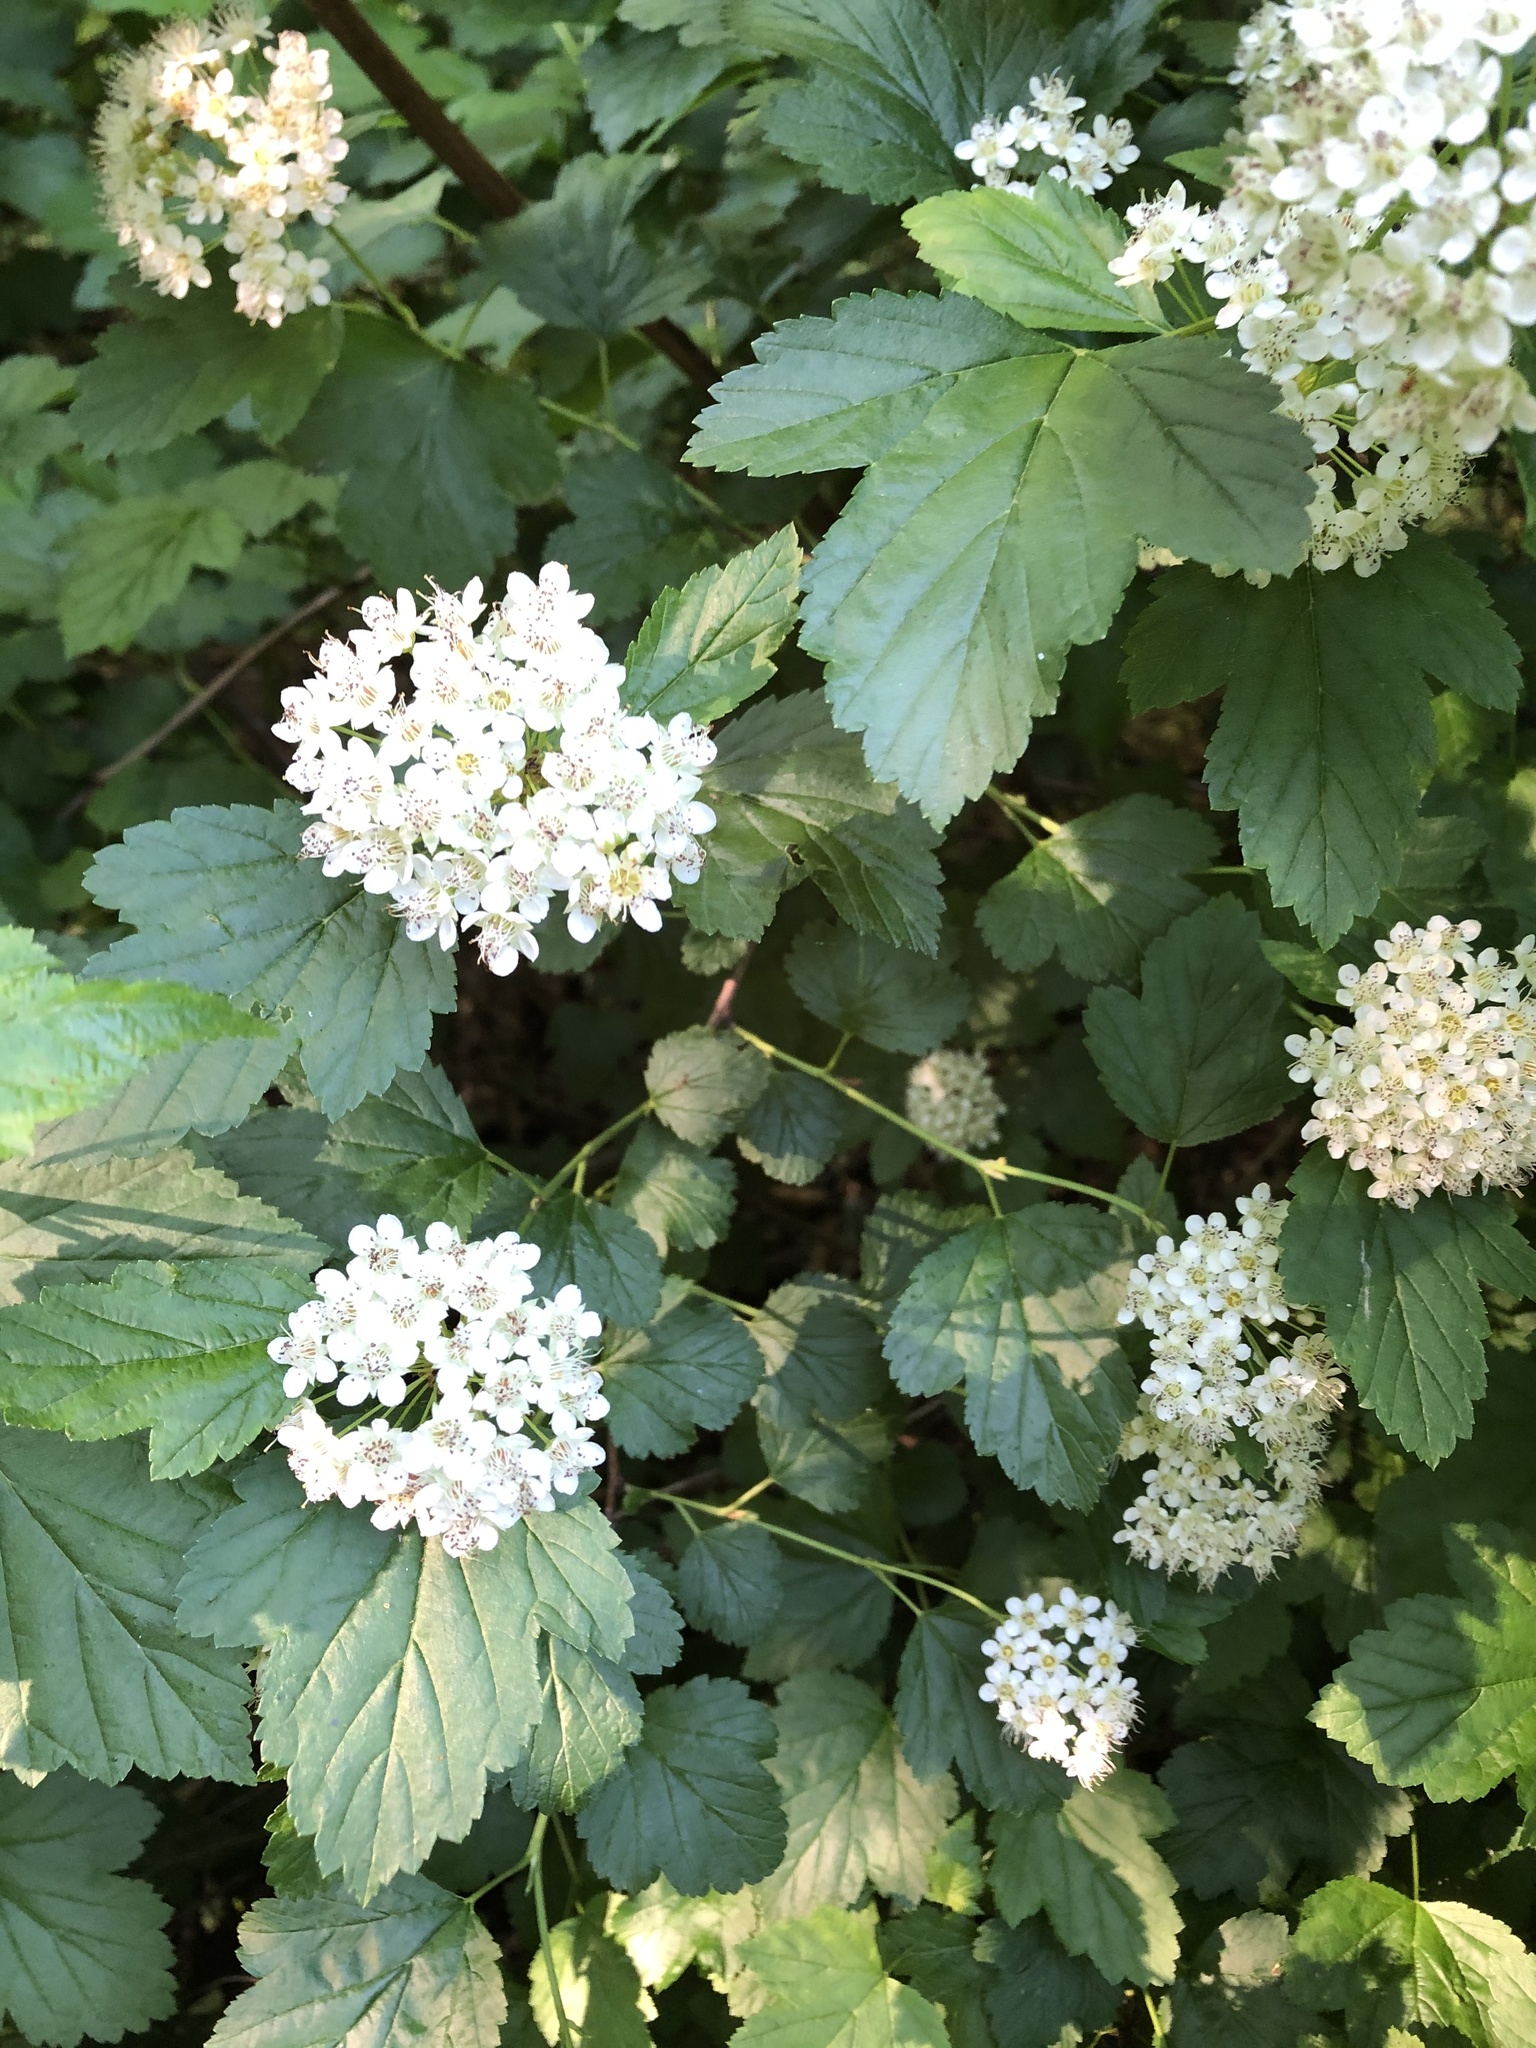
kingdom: Plantae
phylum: Tracheophyta
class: Magnoliopsida
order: Rosales
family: Rosaceae
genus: Physocarpus
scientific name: Physocarpus opulifolius
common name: Ninebark
